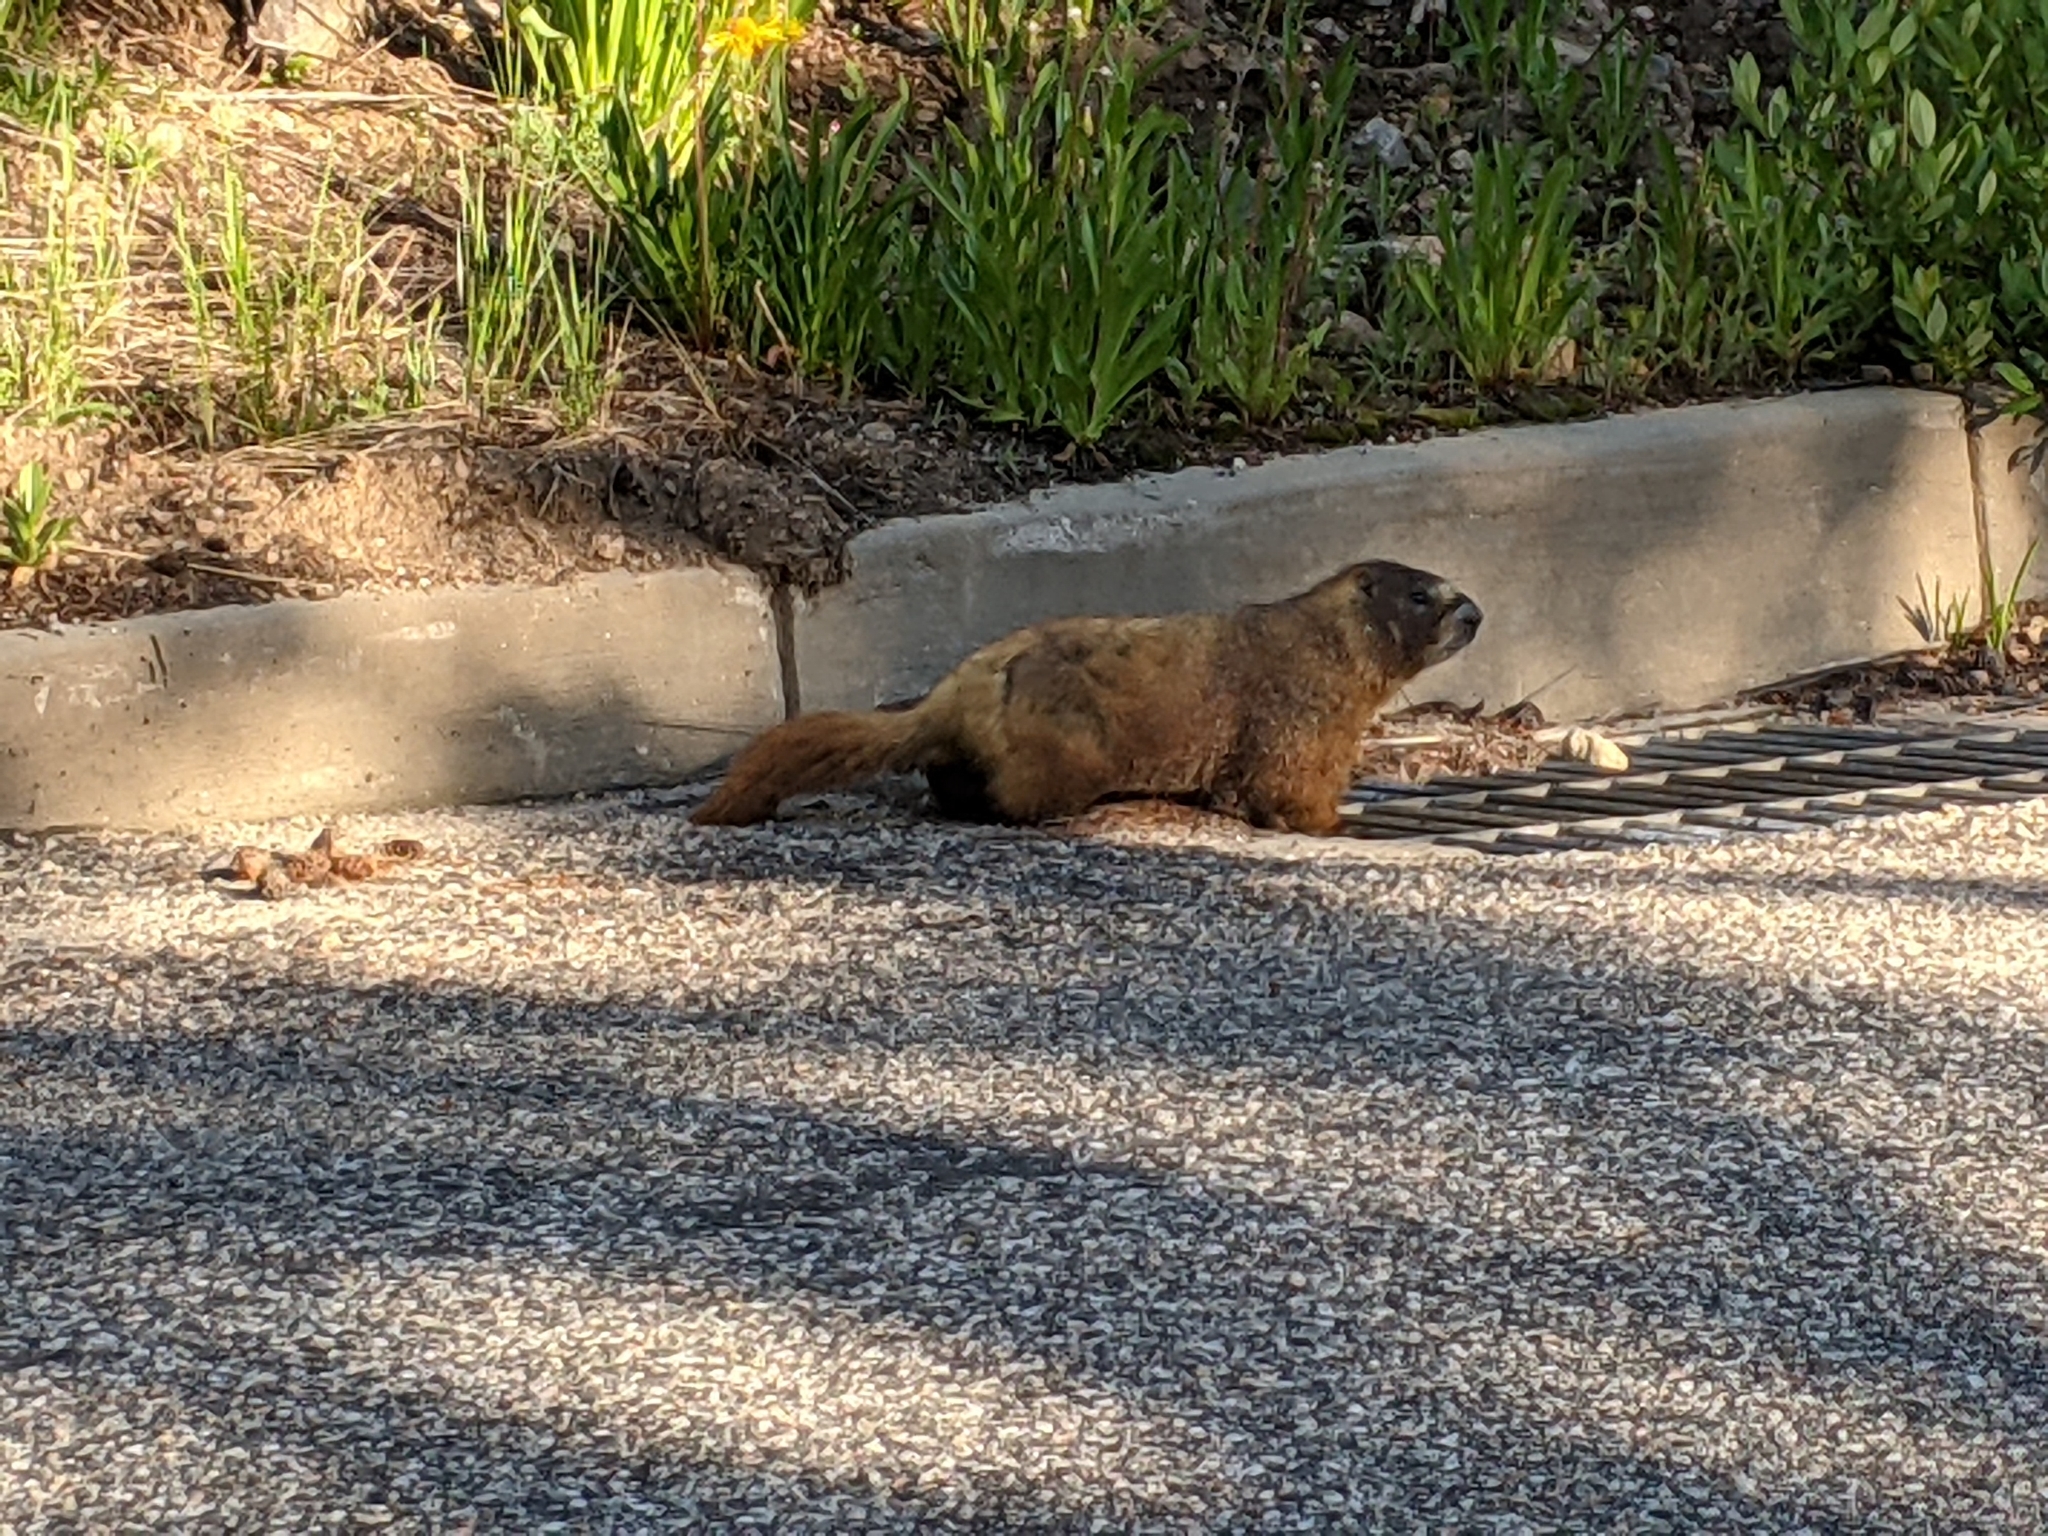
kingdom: Animalia
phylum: Chordata
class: Mammalia
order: Rodentia
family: Sciuridae
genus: Marmota
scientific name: Marmota flaviventris
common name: Yellow-bellied marmot
